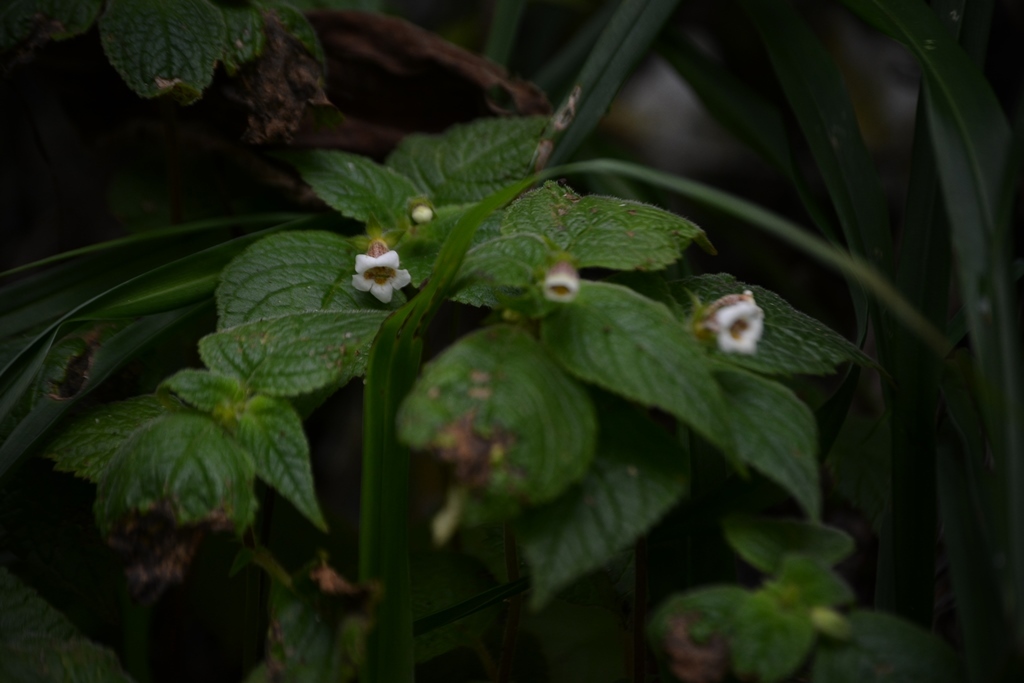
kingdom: Plantae
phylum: Tracheophyta
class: Magnoliopsida
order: Lamiales
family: Gesneriaceae
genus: Achimenes
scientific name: Achimenes misera
